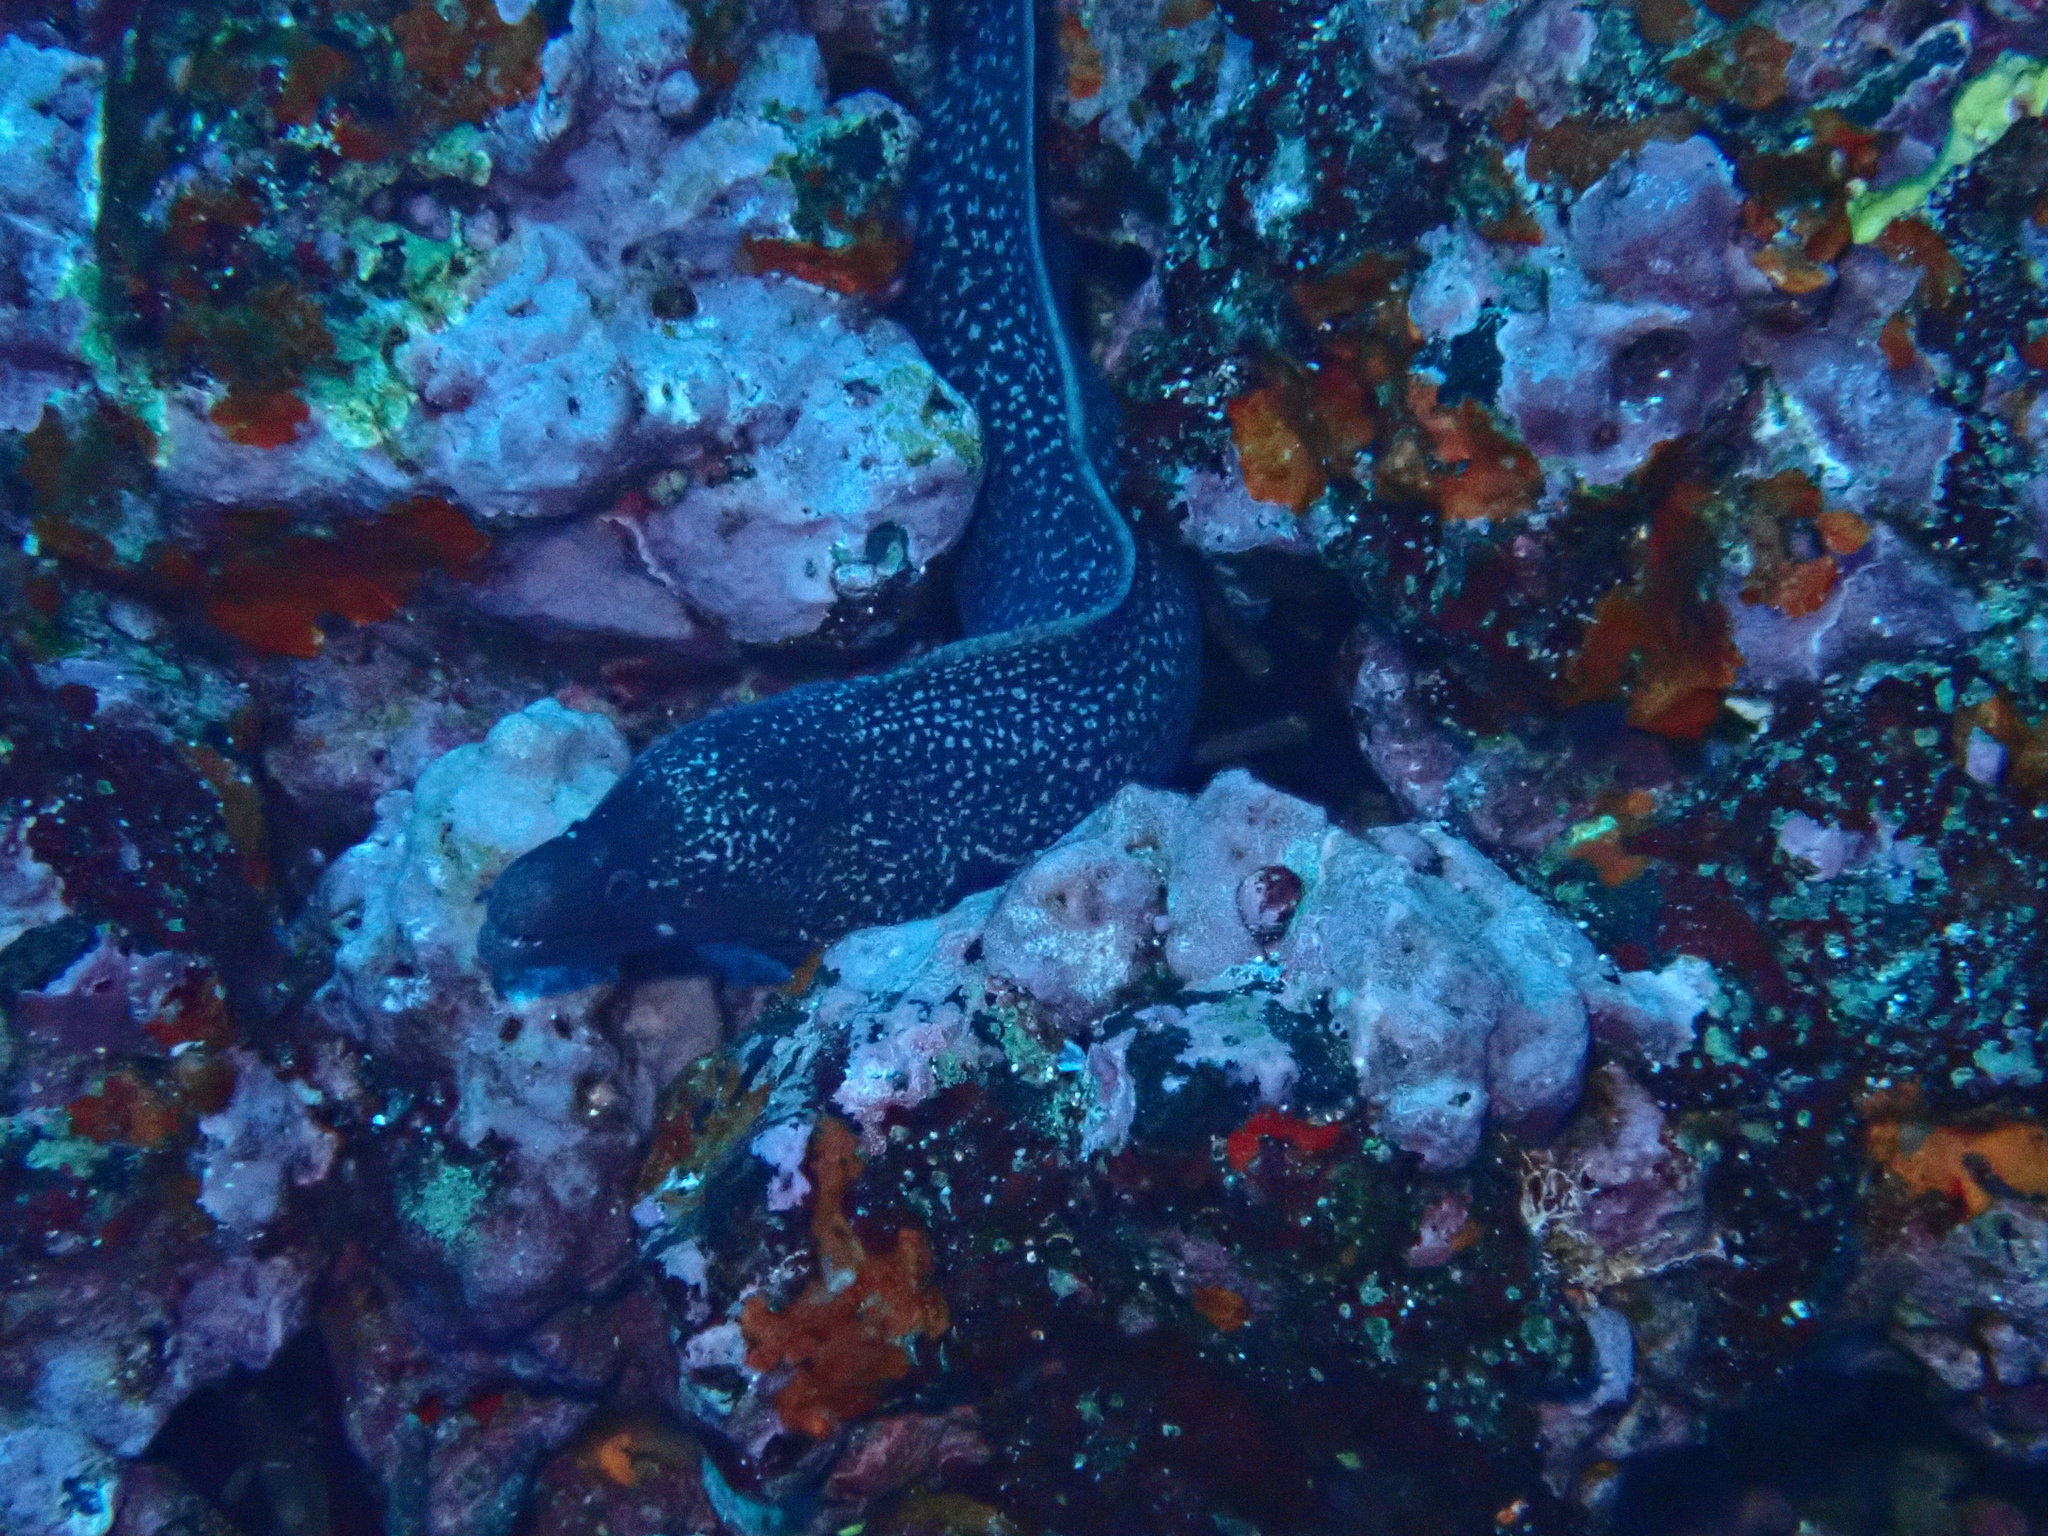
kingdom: Animalia
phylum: Chordata
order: Anguilliformes
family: Muraenidae
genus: Muraena
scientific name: Muraena clepsydra
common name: Hourglass moray
